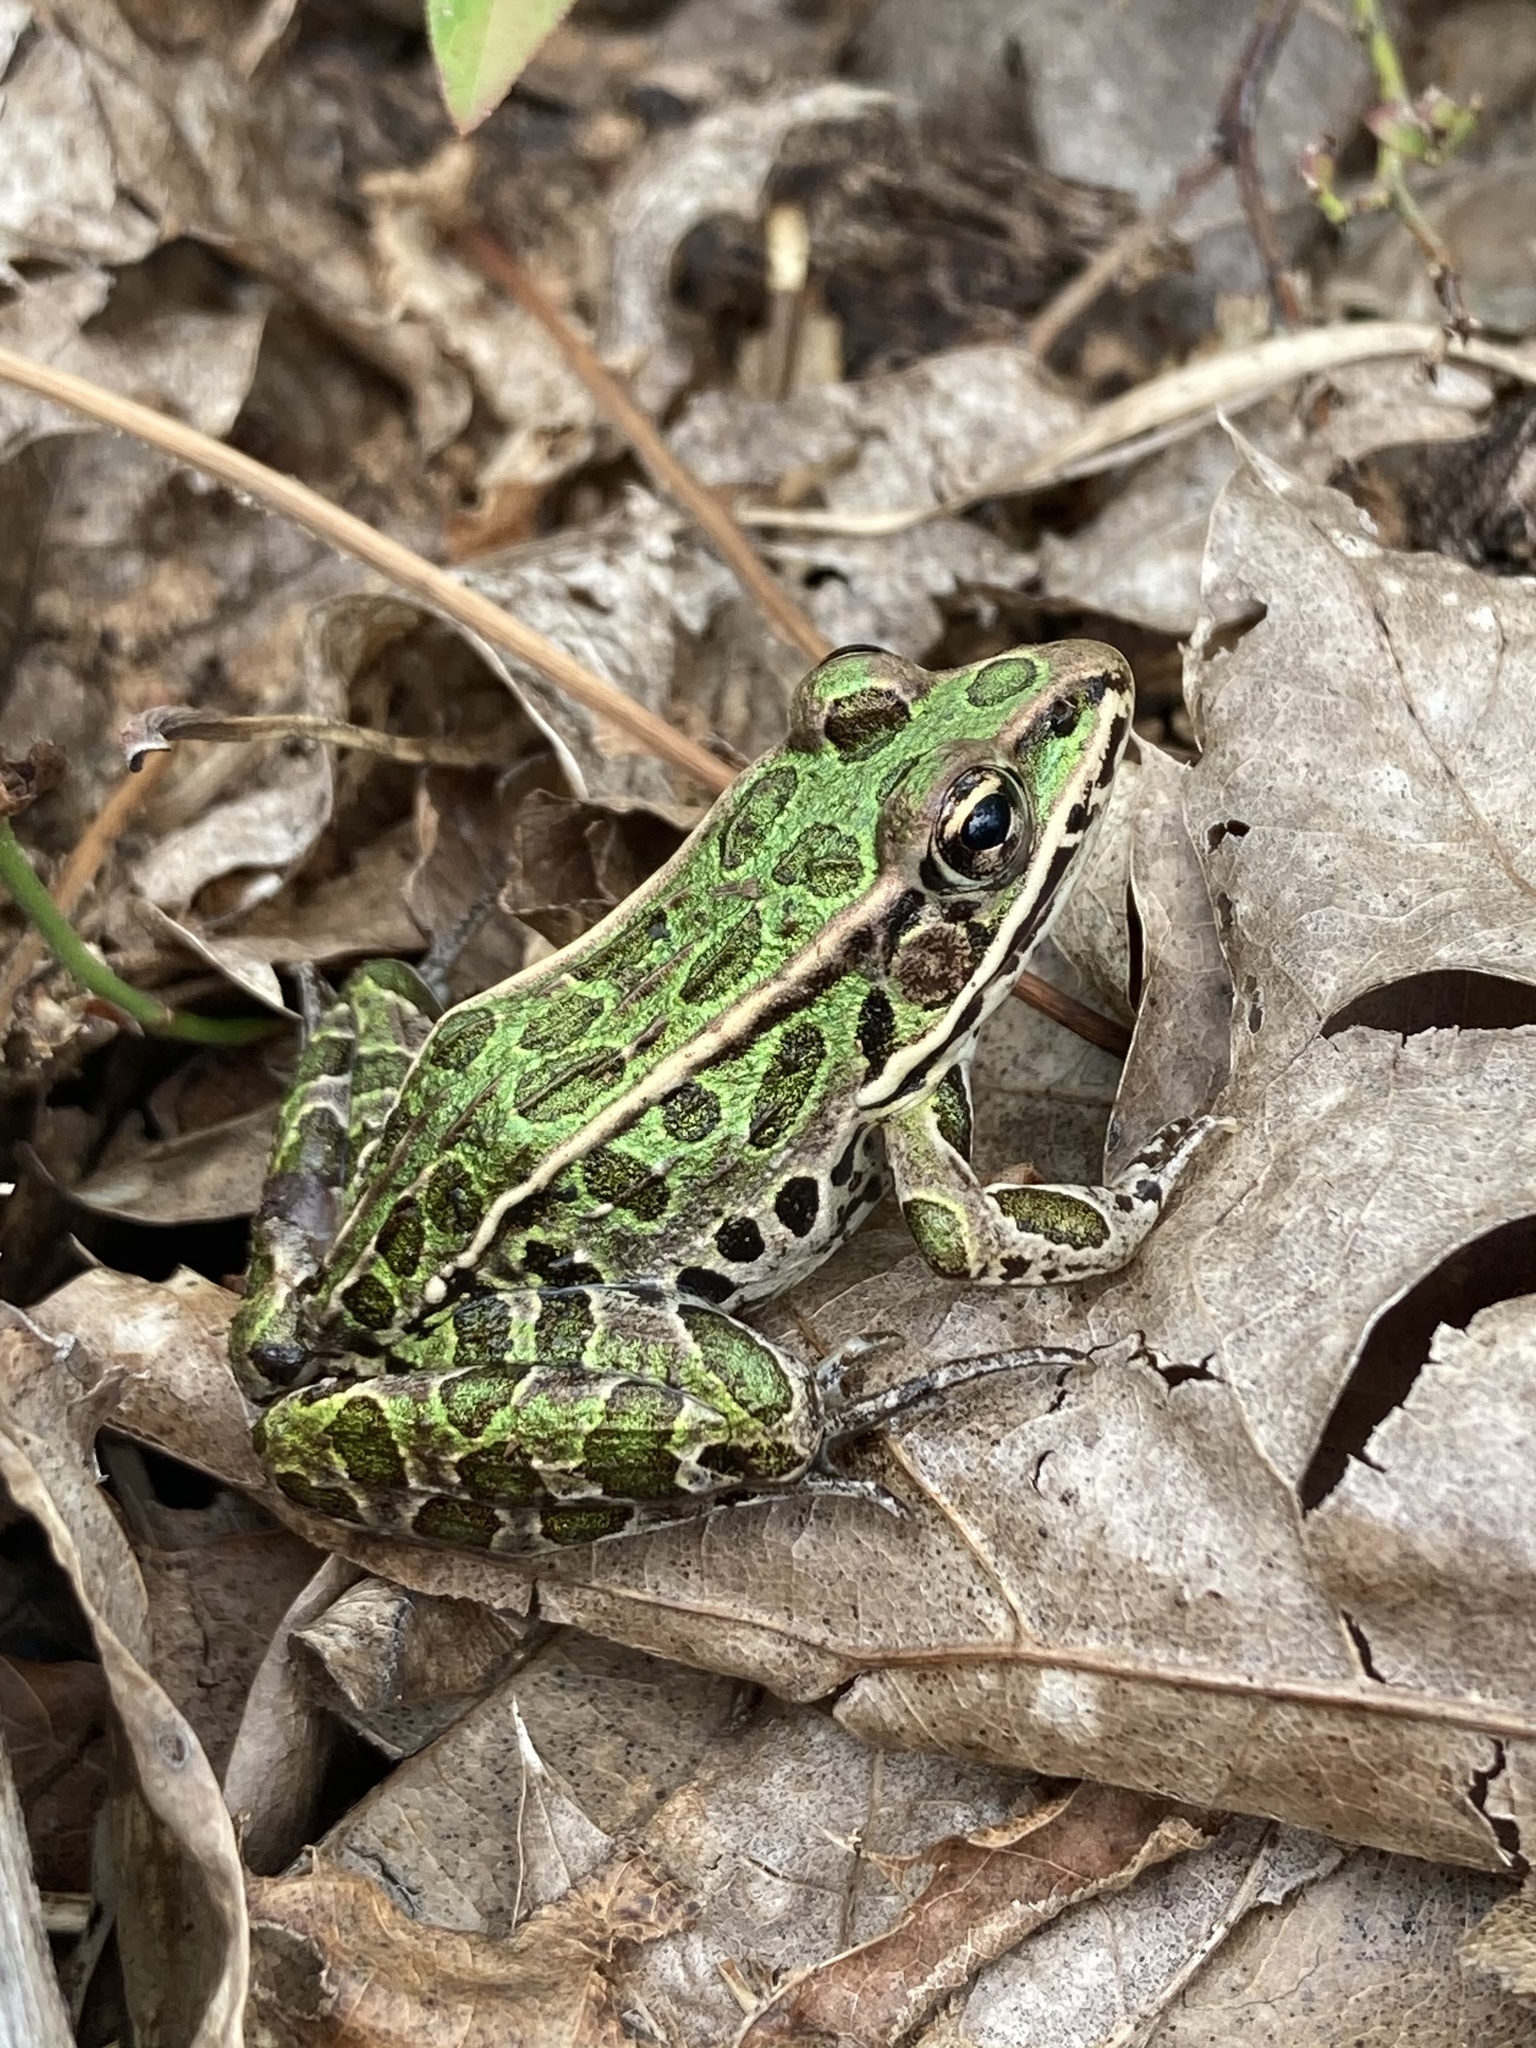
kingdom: Animalia
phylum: Chordata
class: Amphibia
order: Anura
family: Ranidae
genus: Lithobates
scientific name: Lithobates pipiens
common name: Northern leopard frog
